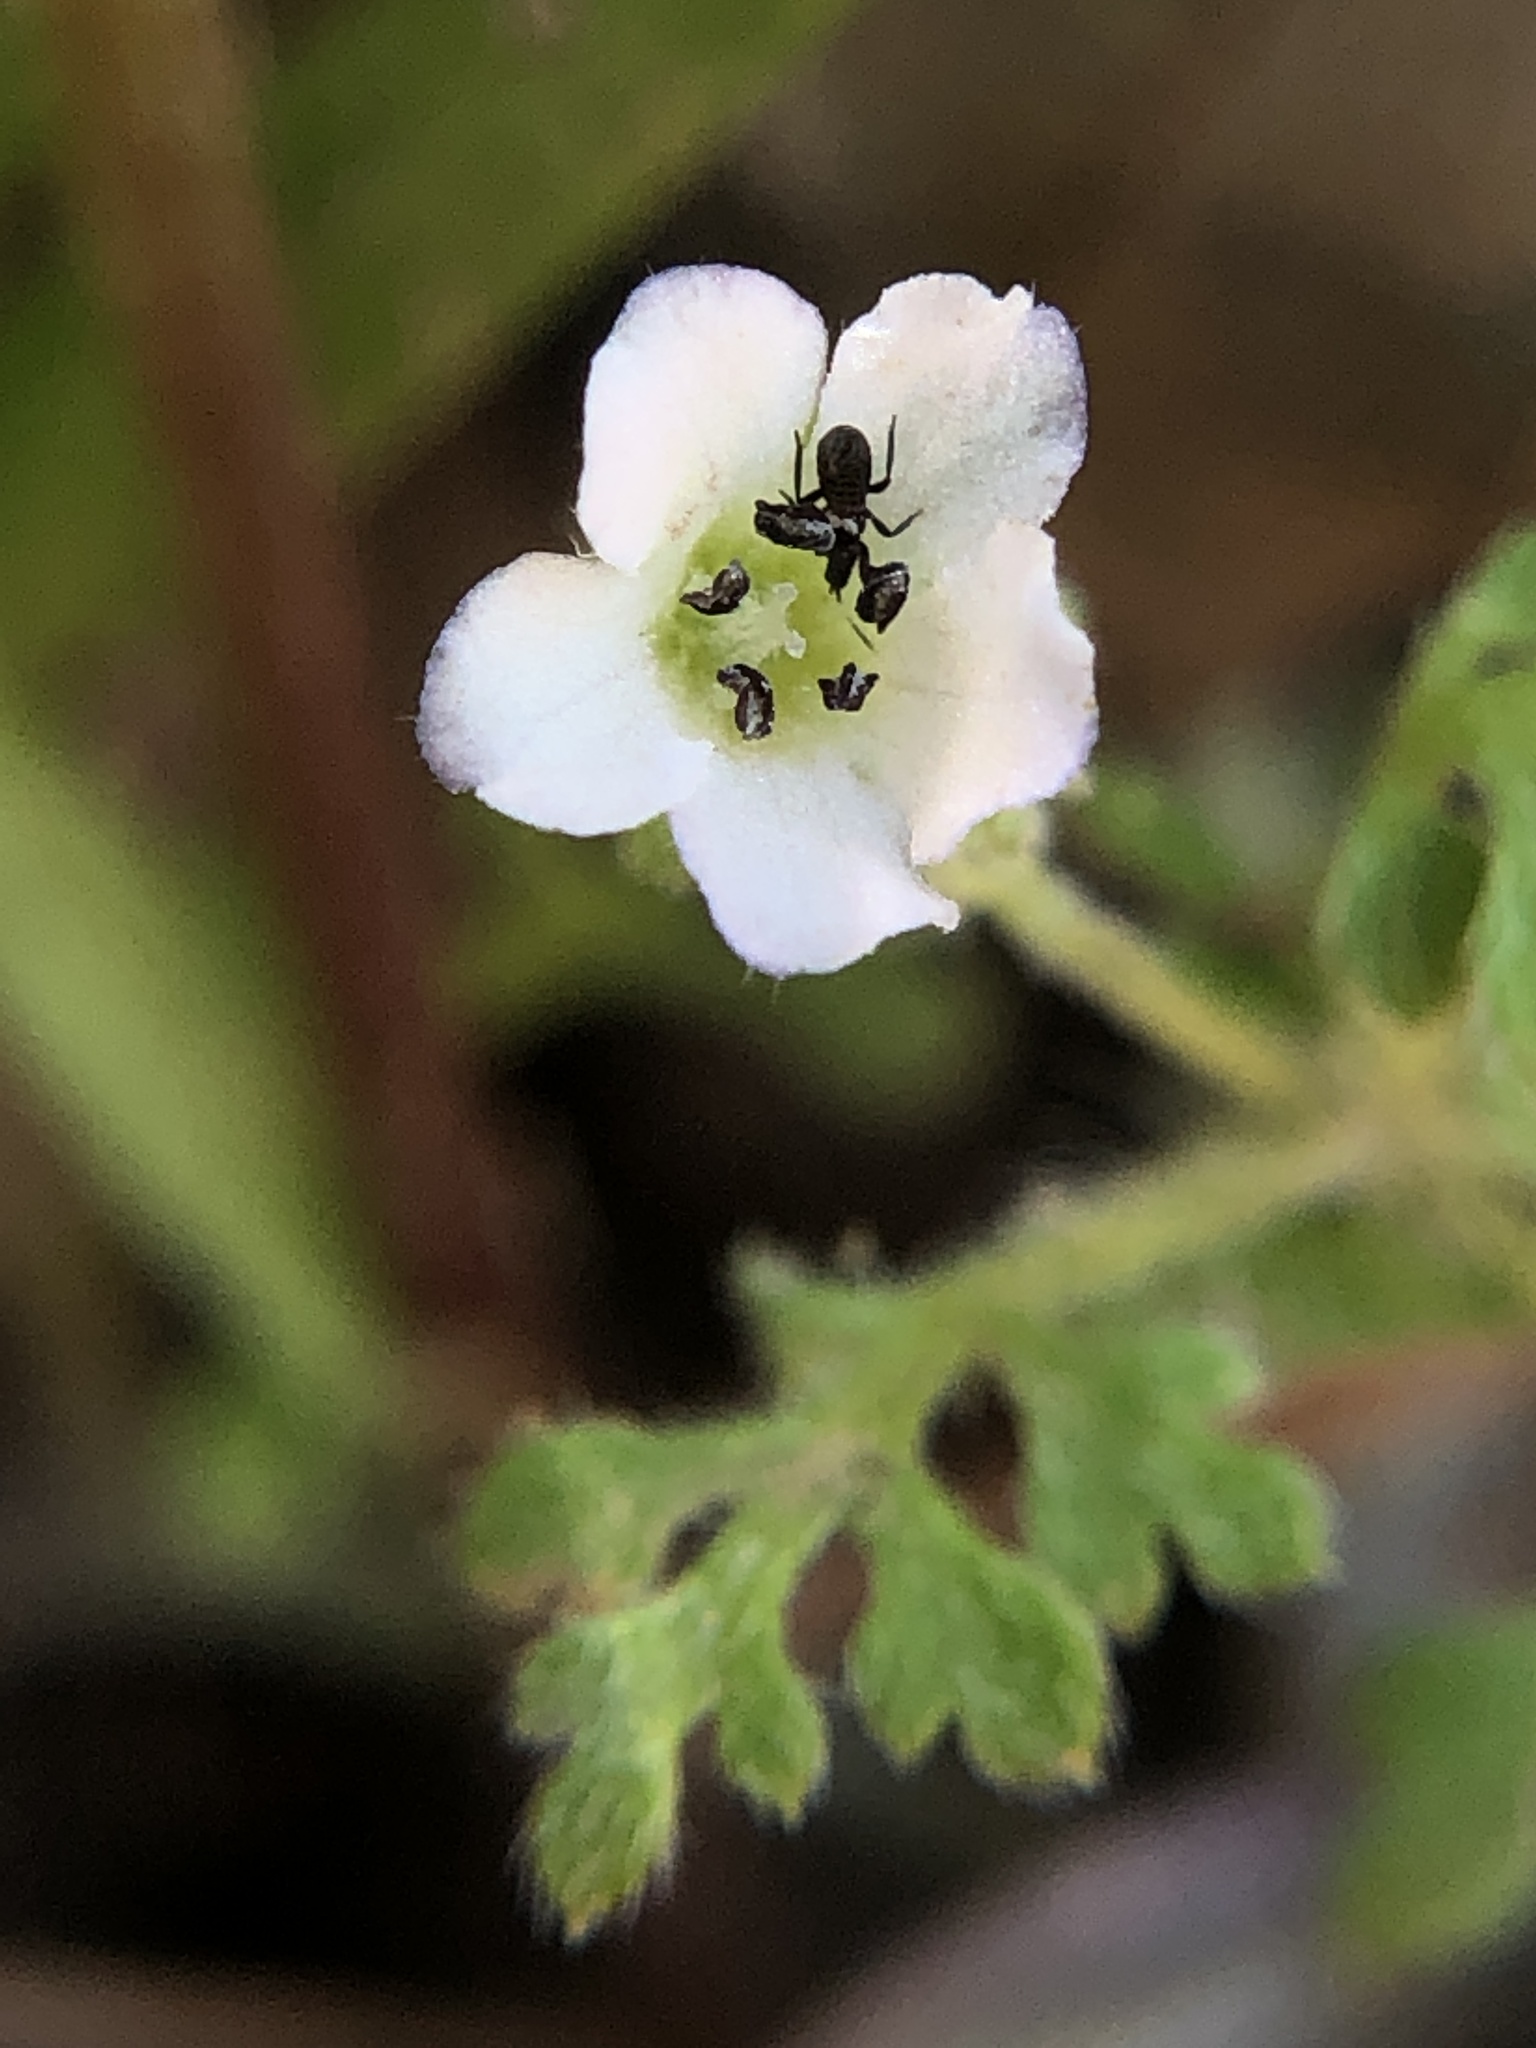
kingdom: Plantae
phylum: Tracheophyta
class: Magnoliopsida
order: Boraginales
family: Hydrophyllaceae
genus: Nemophila
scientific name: Nemophila parviflora
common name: Small-flowered baby-blue-eyes
